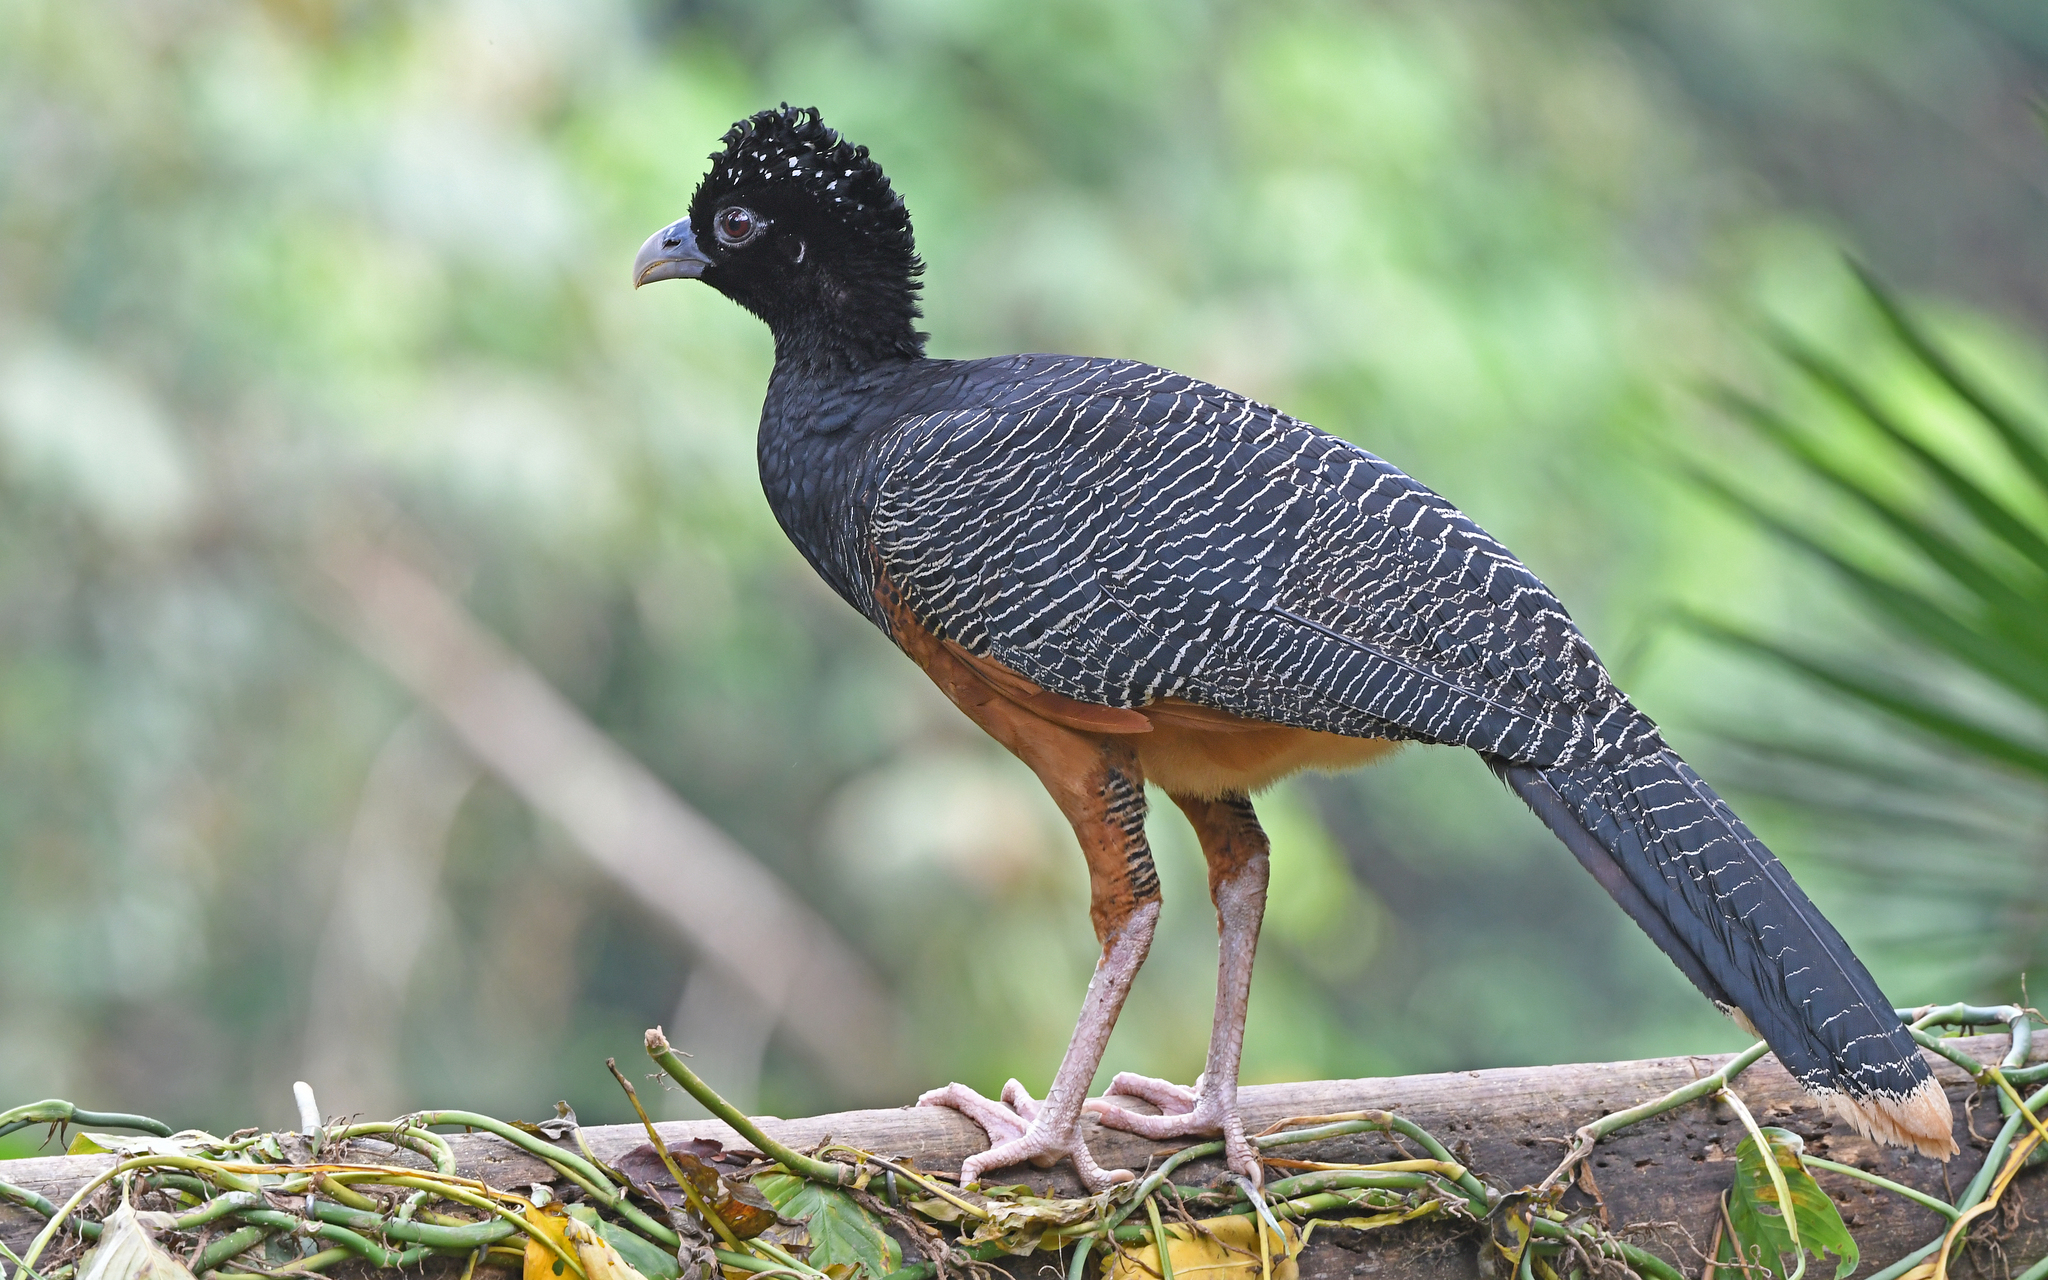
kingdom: Animalia
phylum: Chordata
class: Aves
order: Galliformes
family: Cracidae
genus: Crax
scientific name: Crax alberti
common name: Blue-billed curassow
